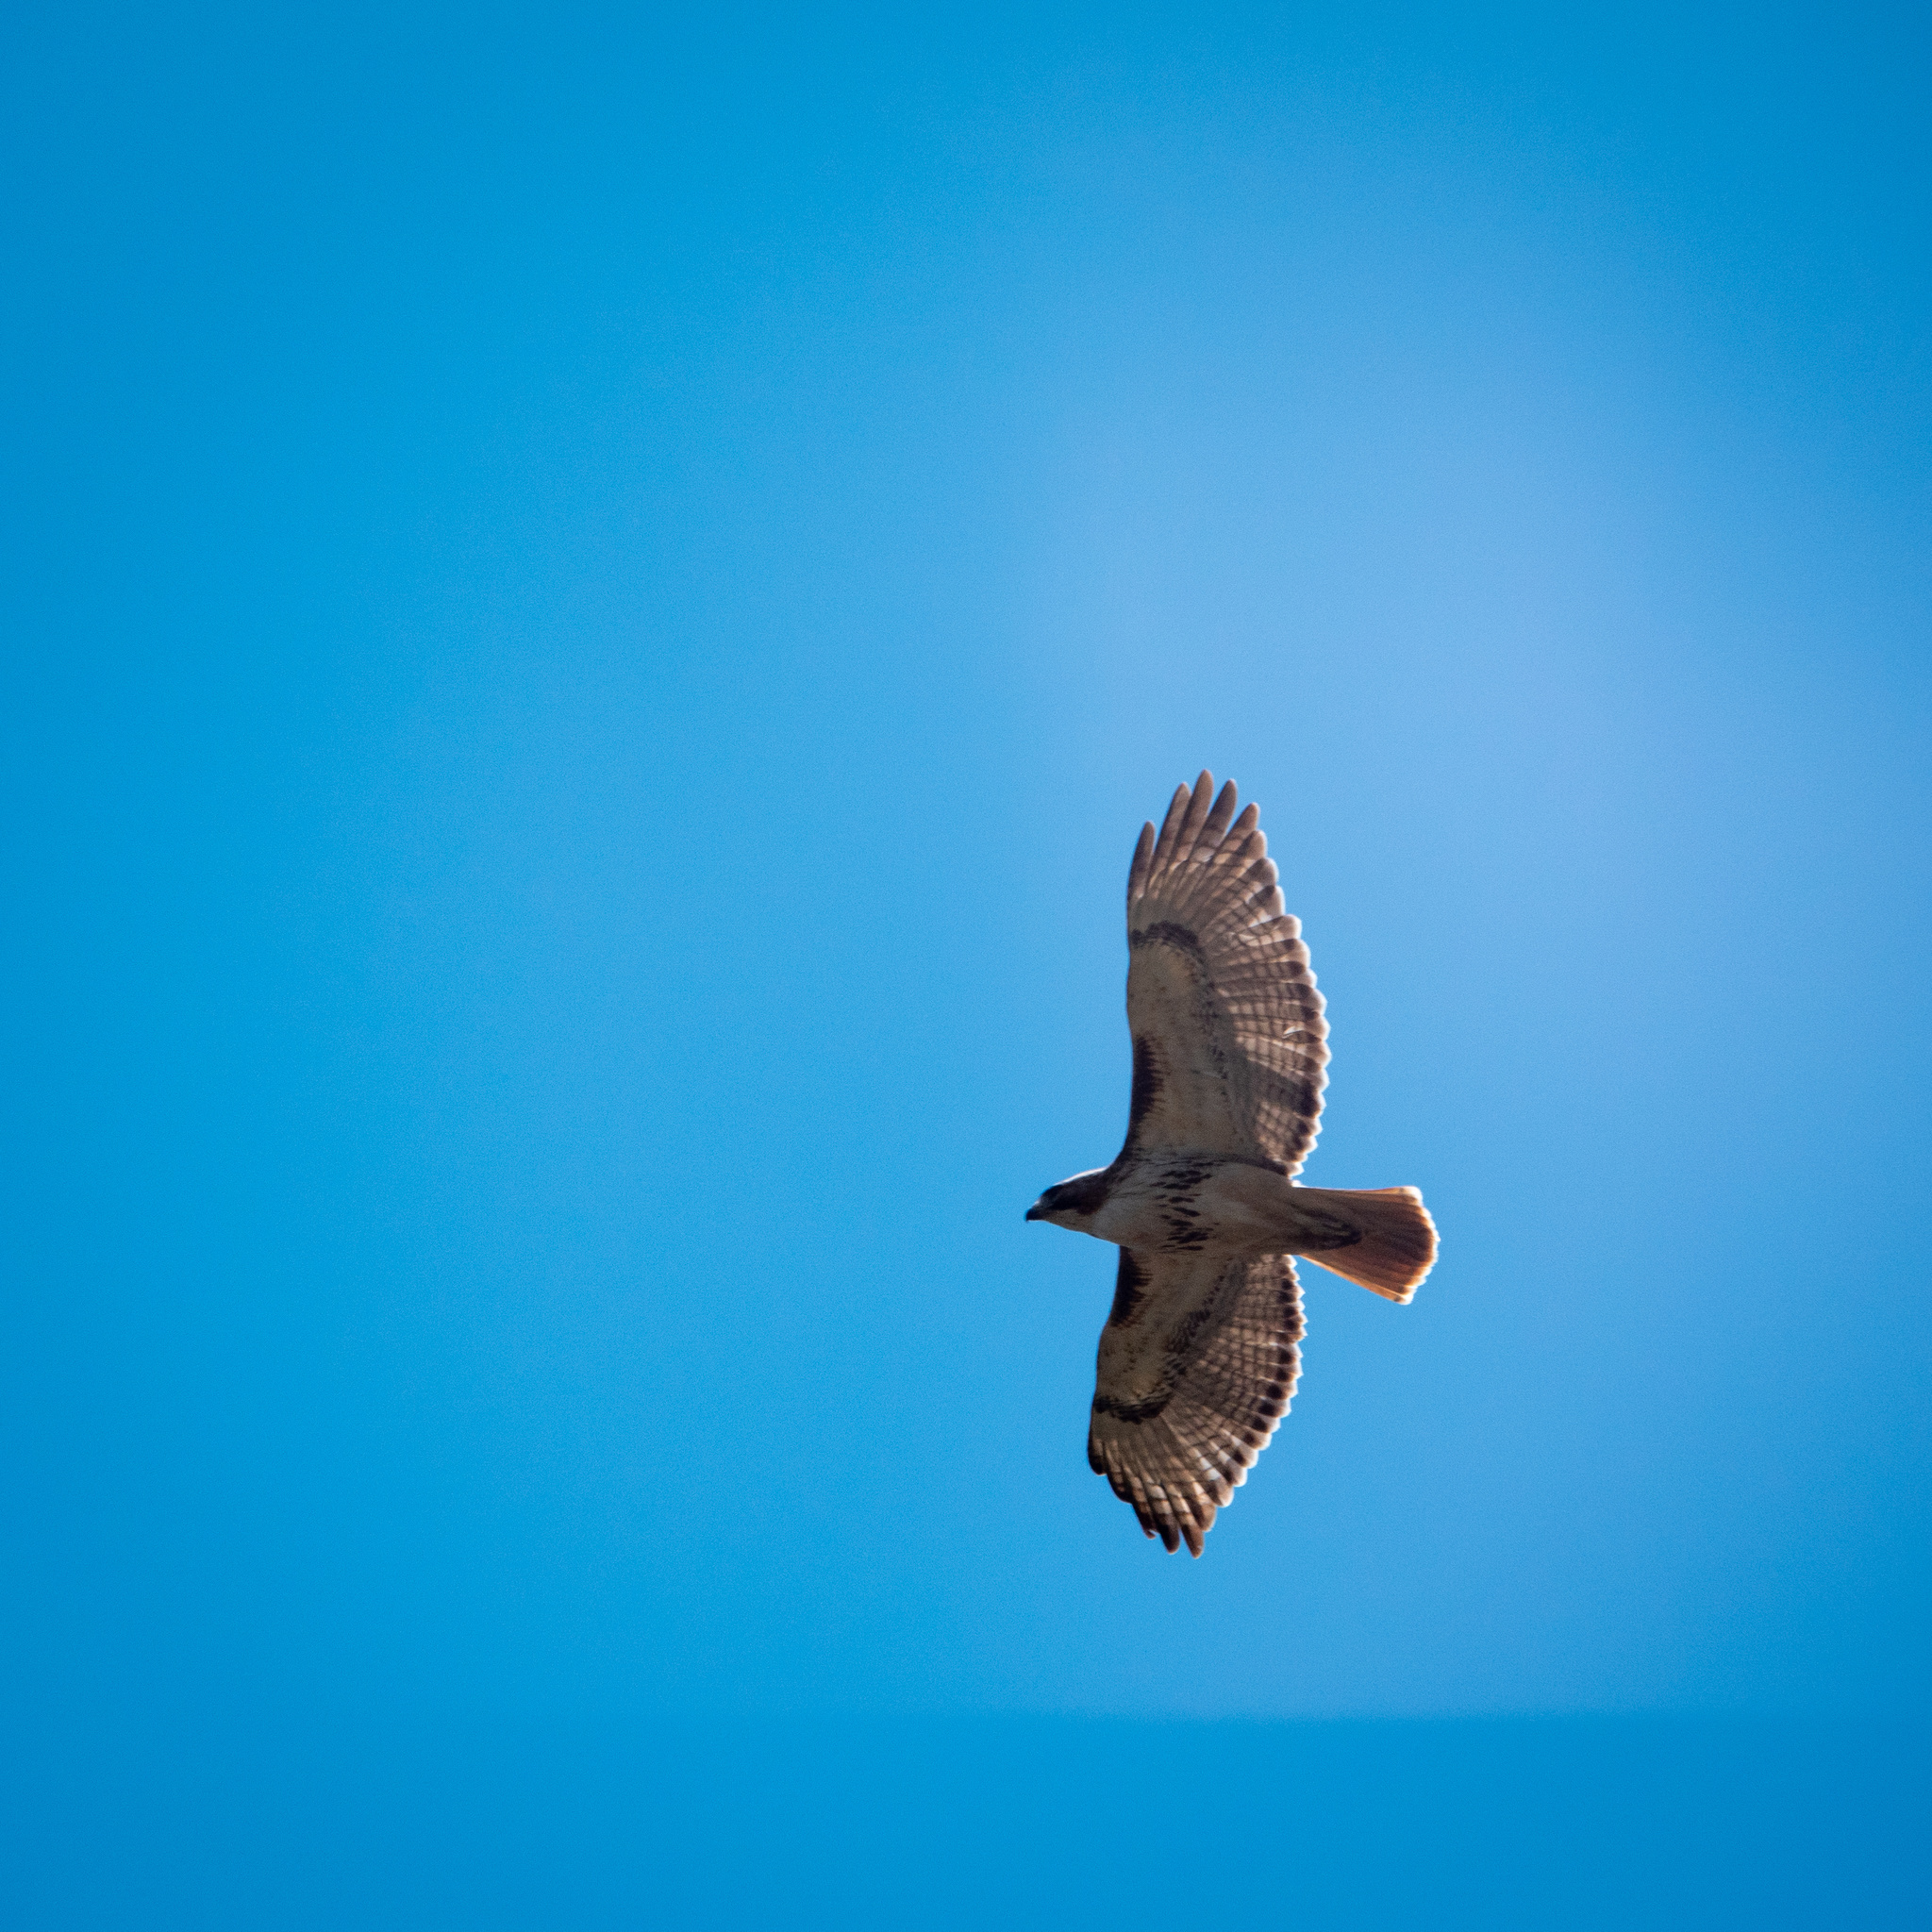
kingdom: Animalia
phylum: Chordata
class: Aves
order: Accipitriformes
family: Accipitridae
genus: Buteo
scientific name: Buteo jamaicensis
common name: Red-tailed hawk
